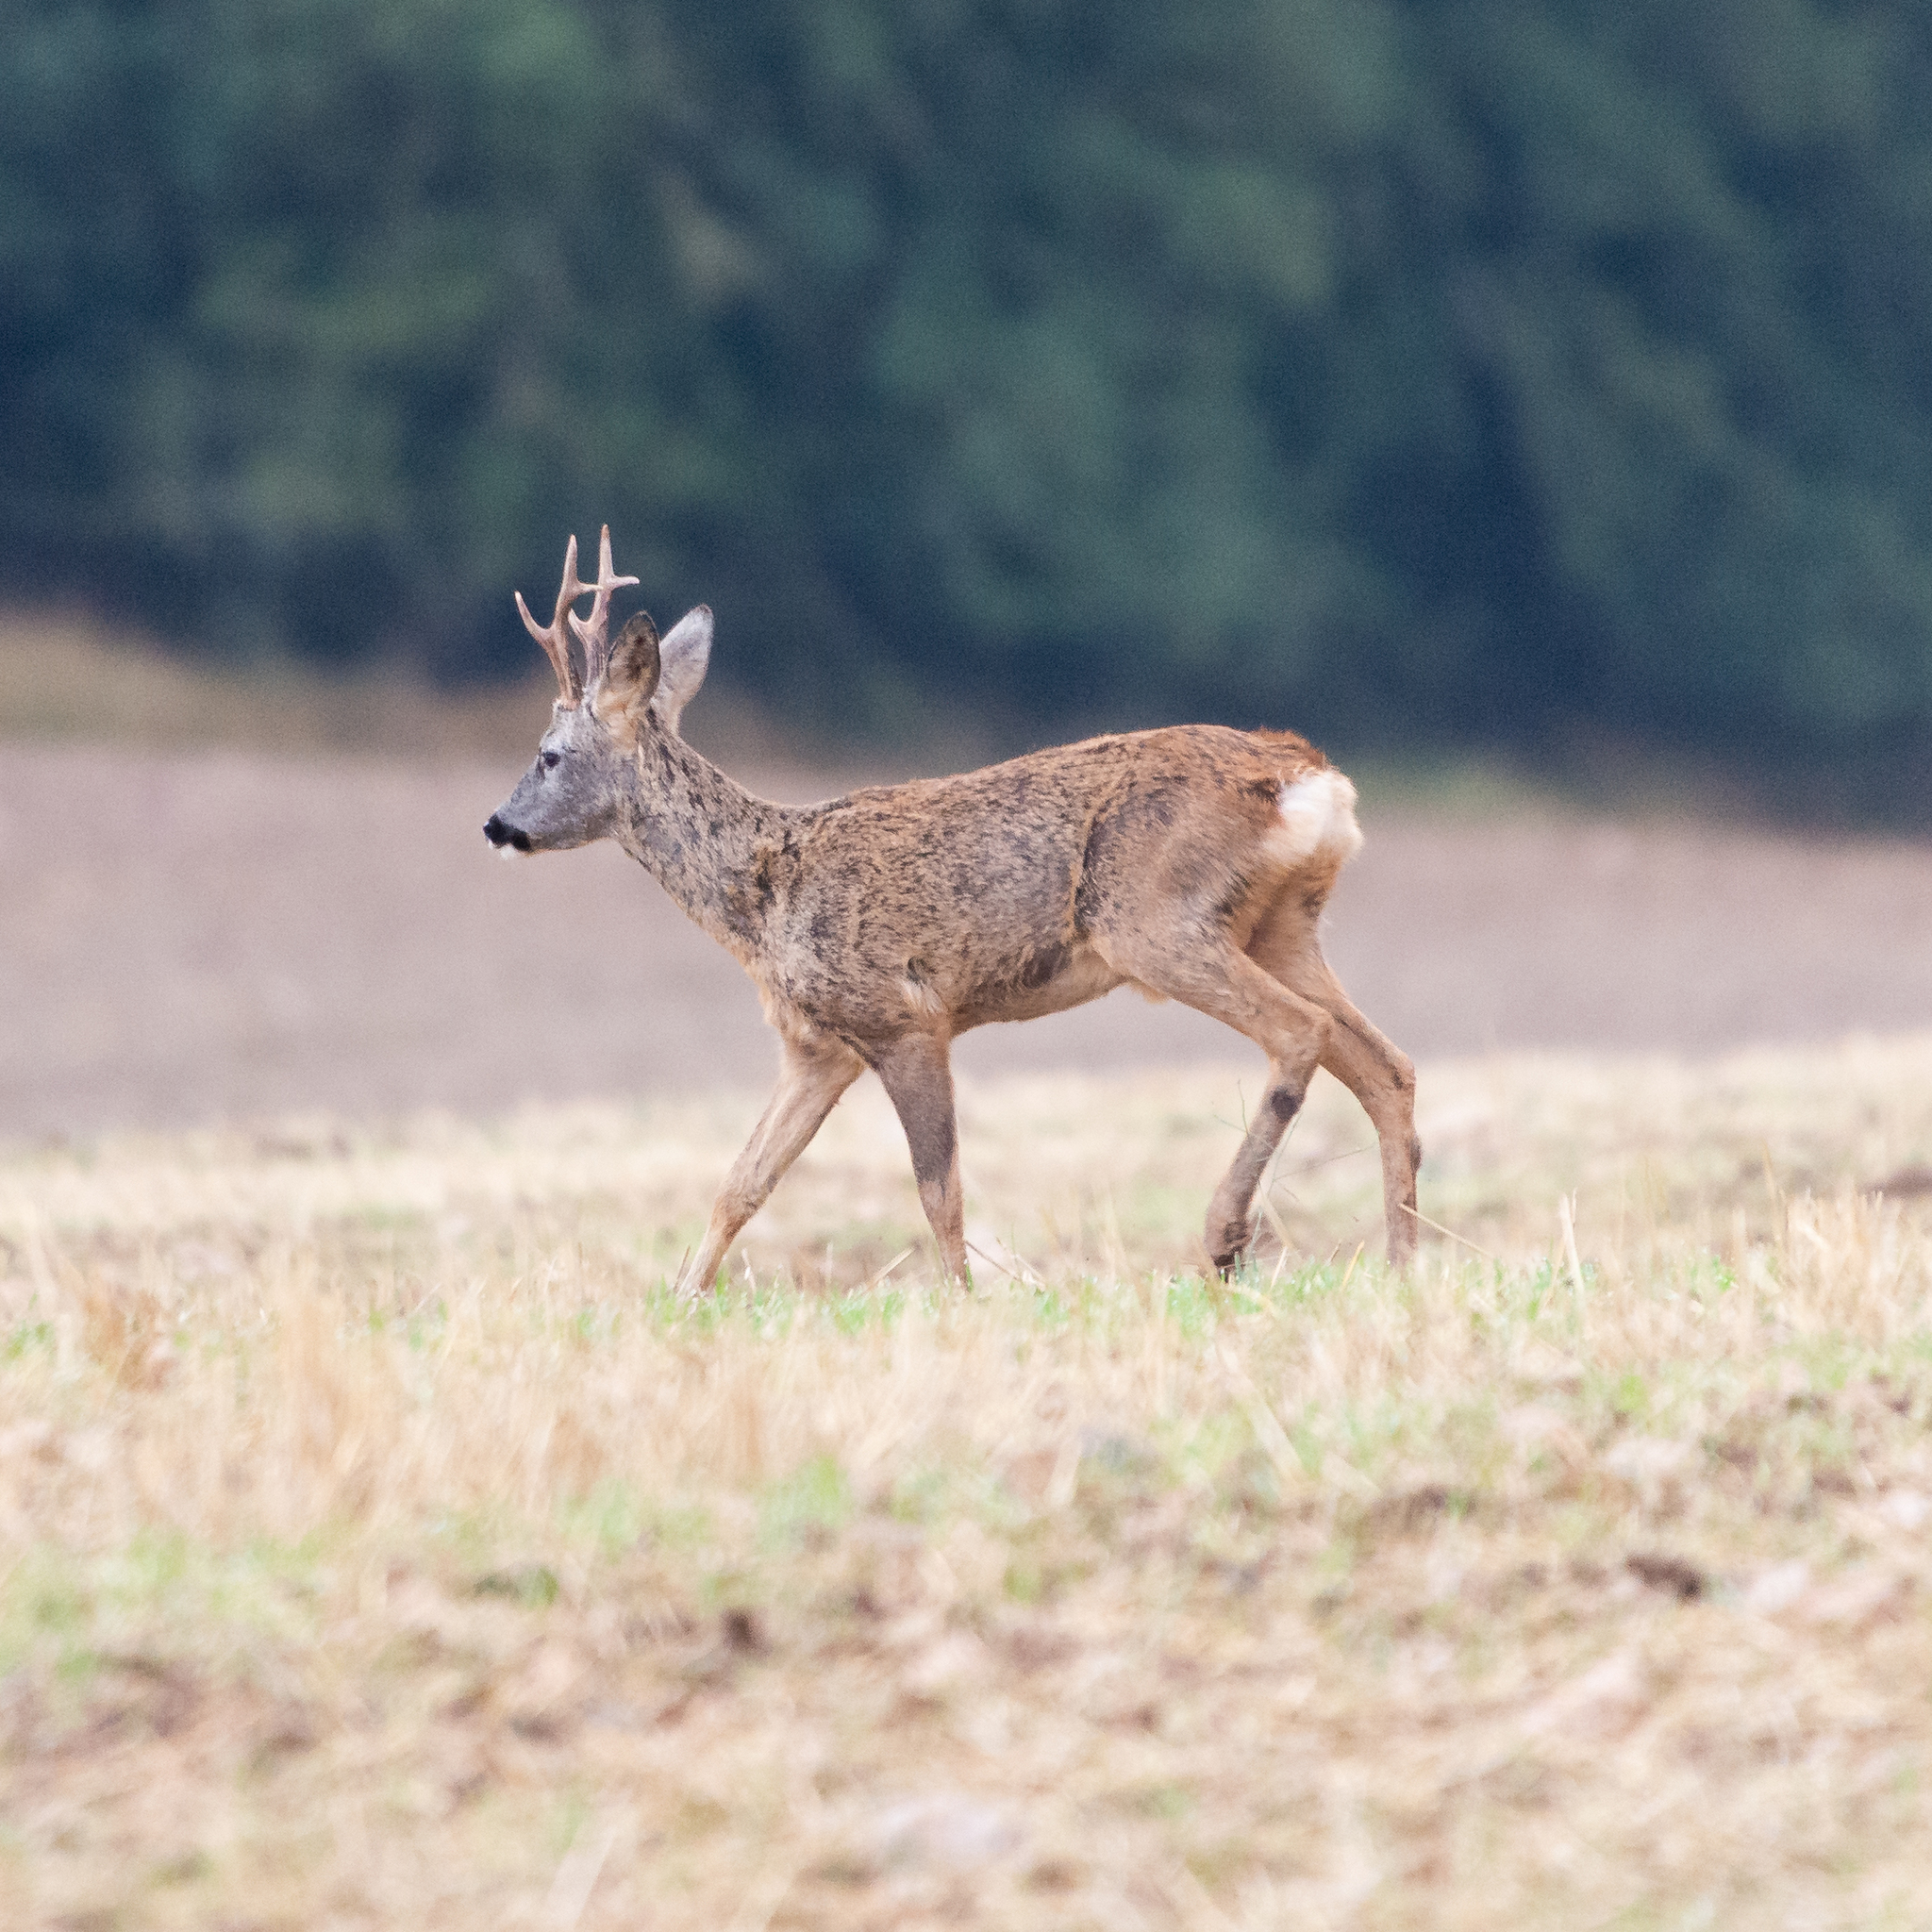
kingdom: Animalia
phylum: Chordata
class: Mammalia
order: Artiodactyla
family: Cervidae
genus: Capreolus
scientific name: Capreolus capreolus
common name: Western roe deer
